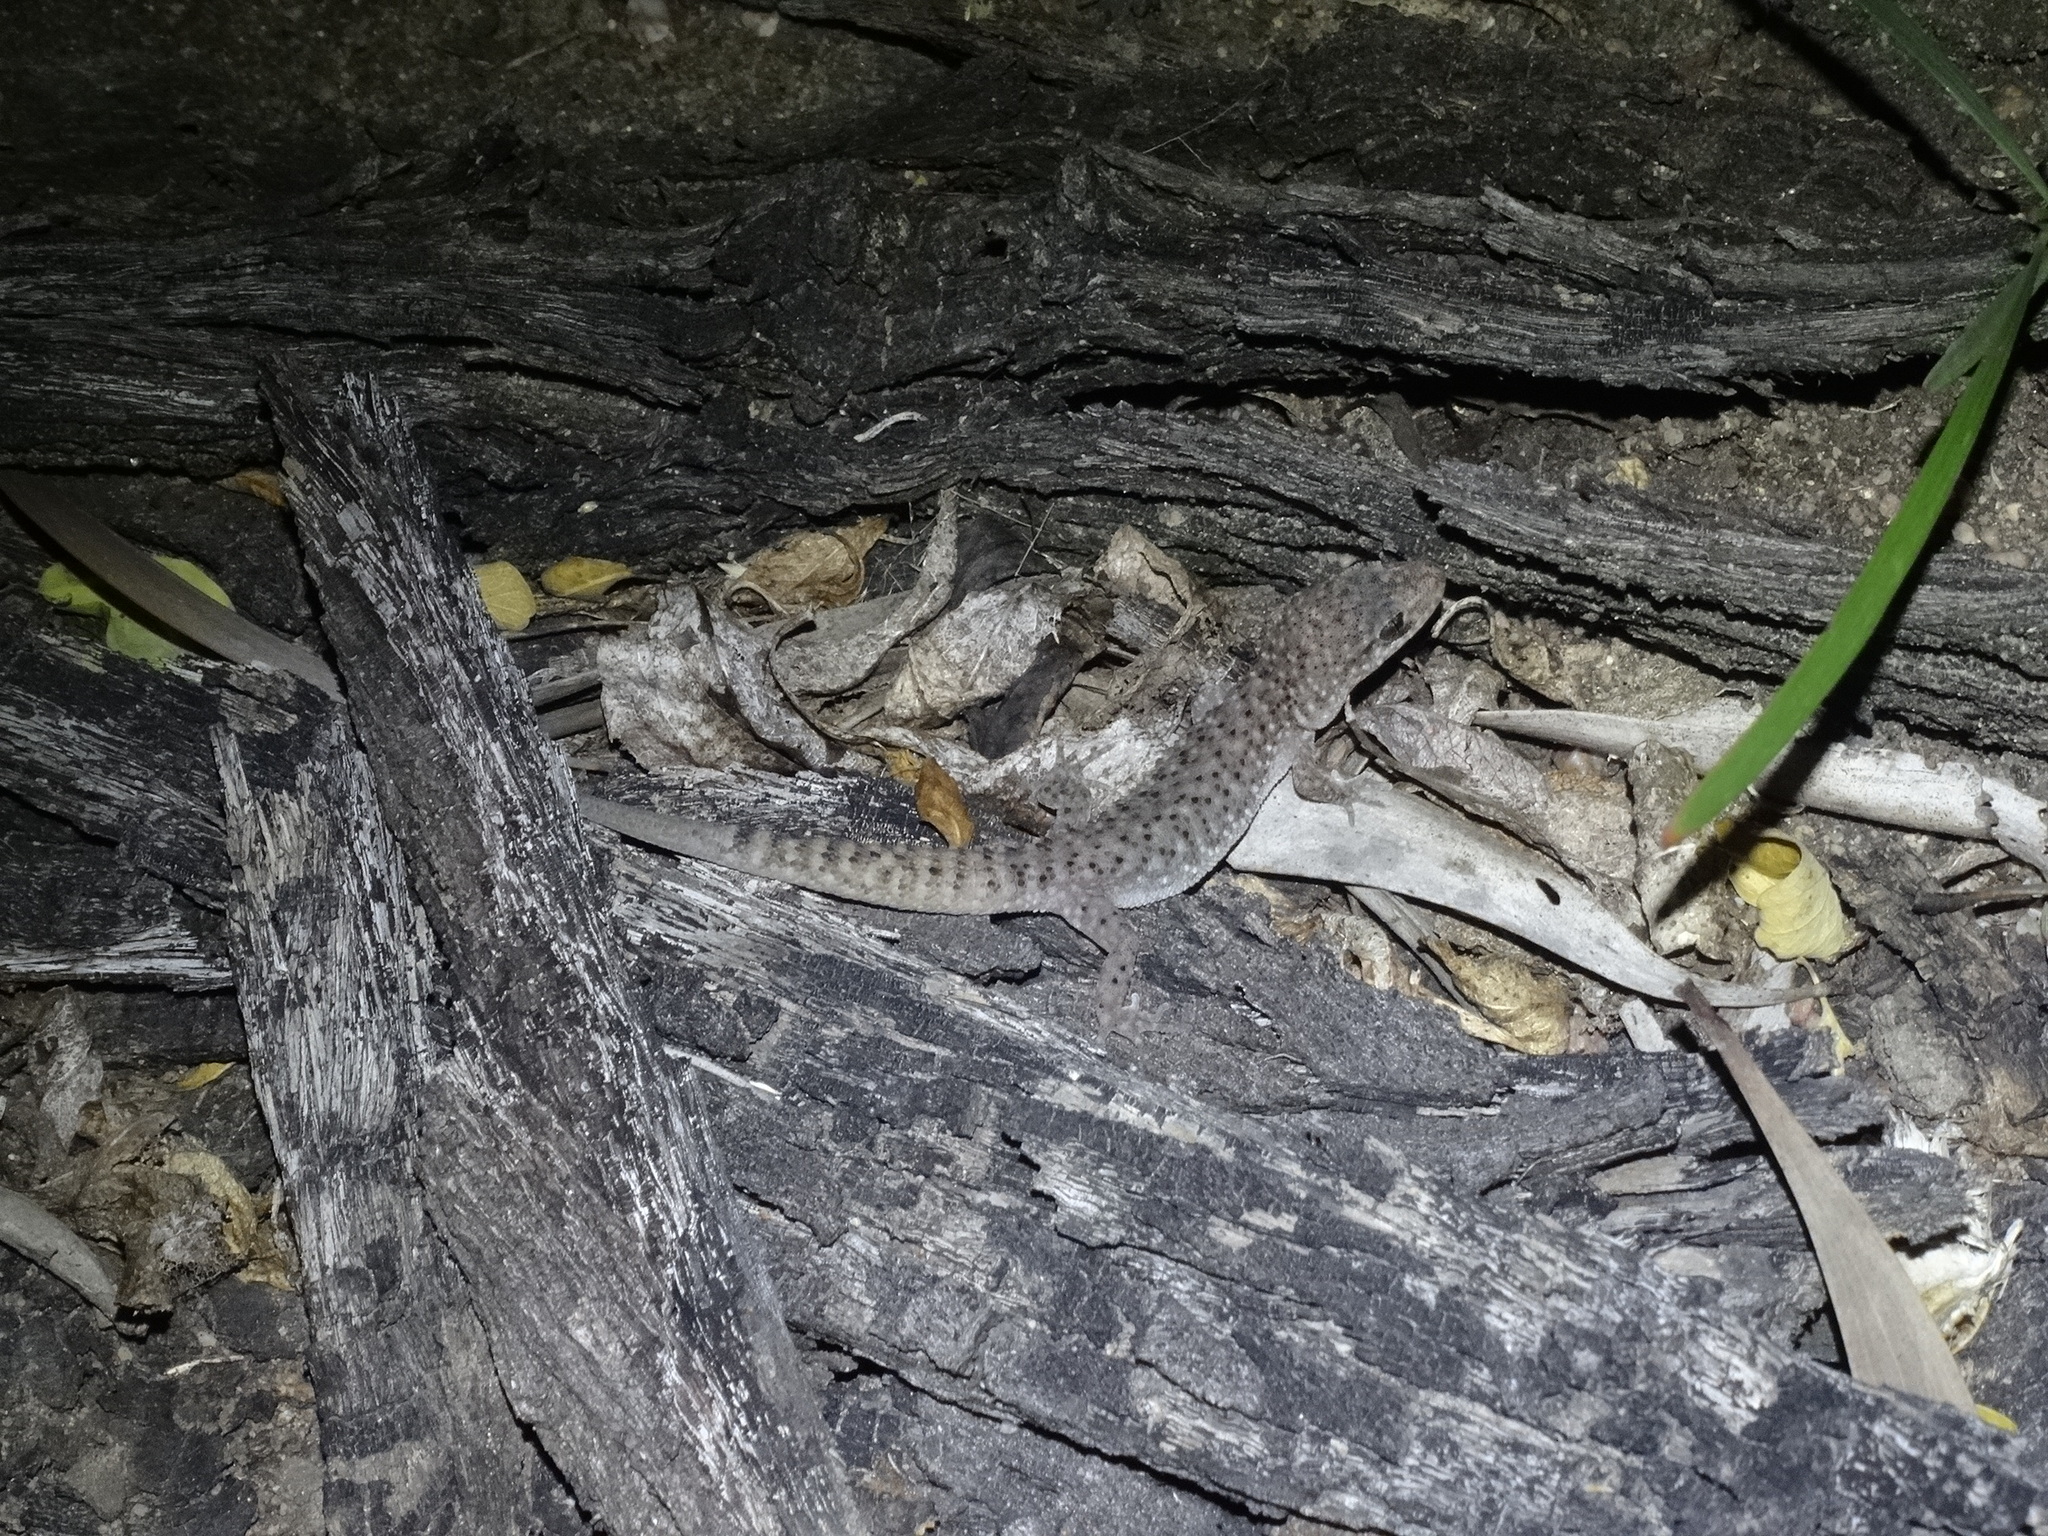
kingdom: Animalia
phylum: Chordata
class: Squamata
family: Gekkonidae
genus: Heteronotia
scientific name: Heteronotia binoei
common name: Bynoe's gecko
